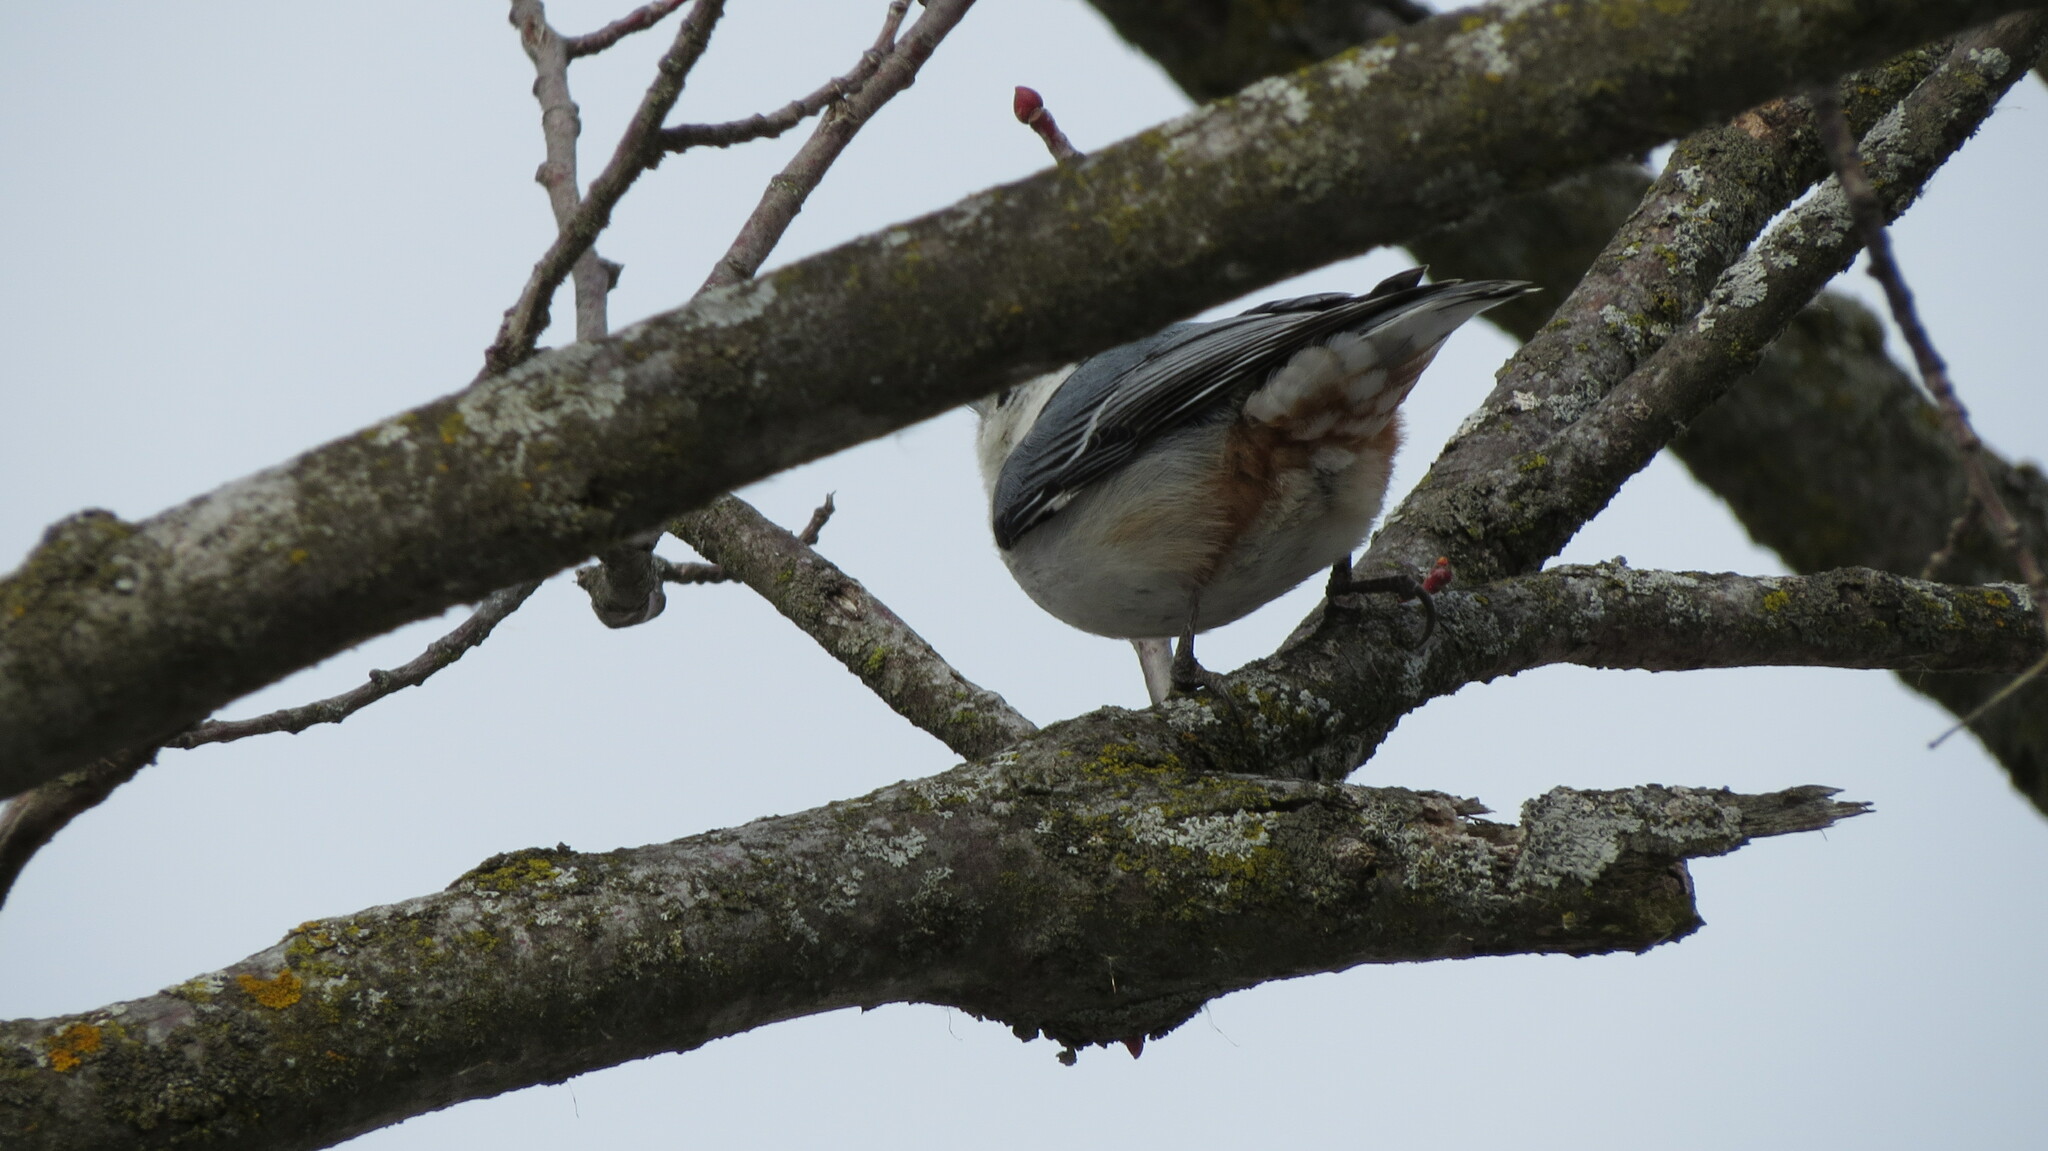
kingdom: Animalia
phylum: Chordata
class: Aves
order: Passeriformes
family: Sittidae
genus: Sitta
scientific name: Sitta carolinensis
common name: White-breasted nuthatch
